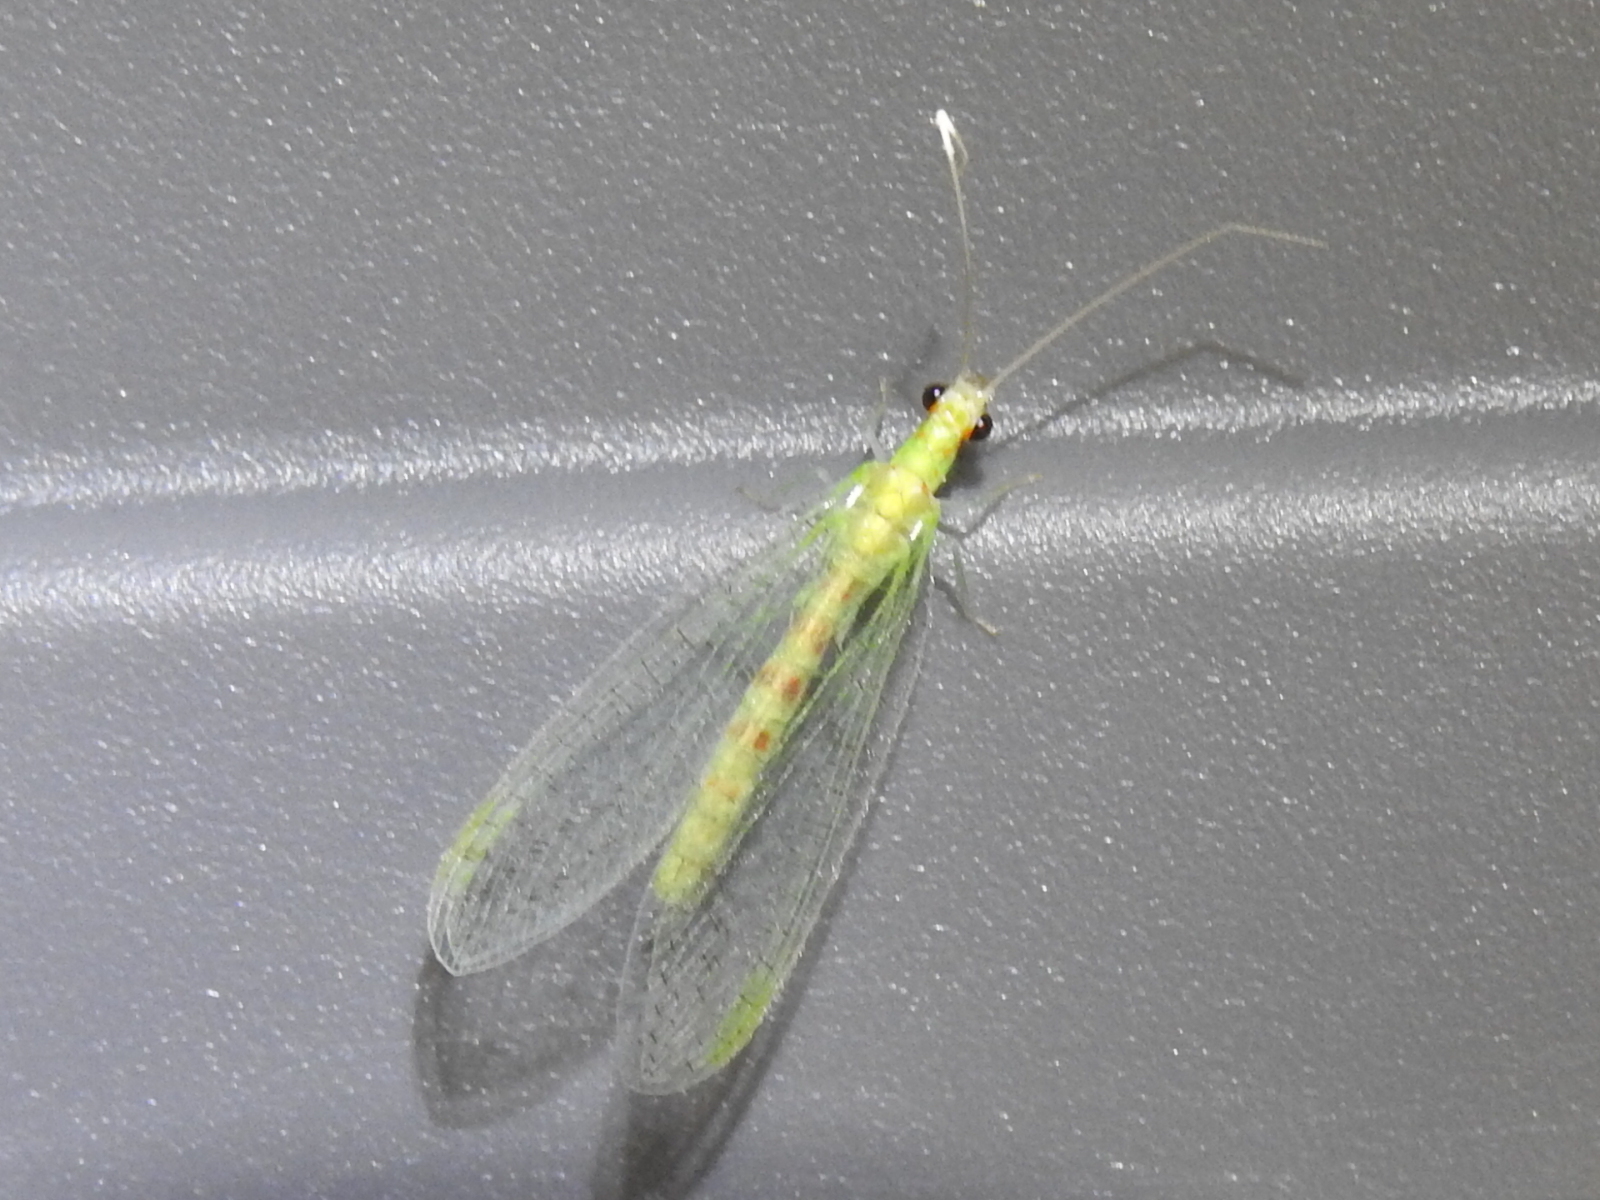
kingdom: Animalia
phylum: Arthropoda
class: Insecta
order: Neuroptera
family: Chrysopidae
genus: Chrysopa
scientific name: Chrysopa quadripunctata
